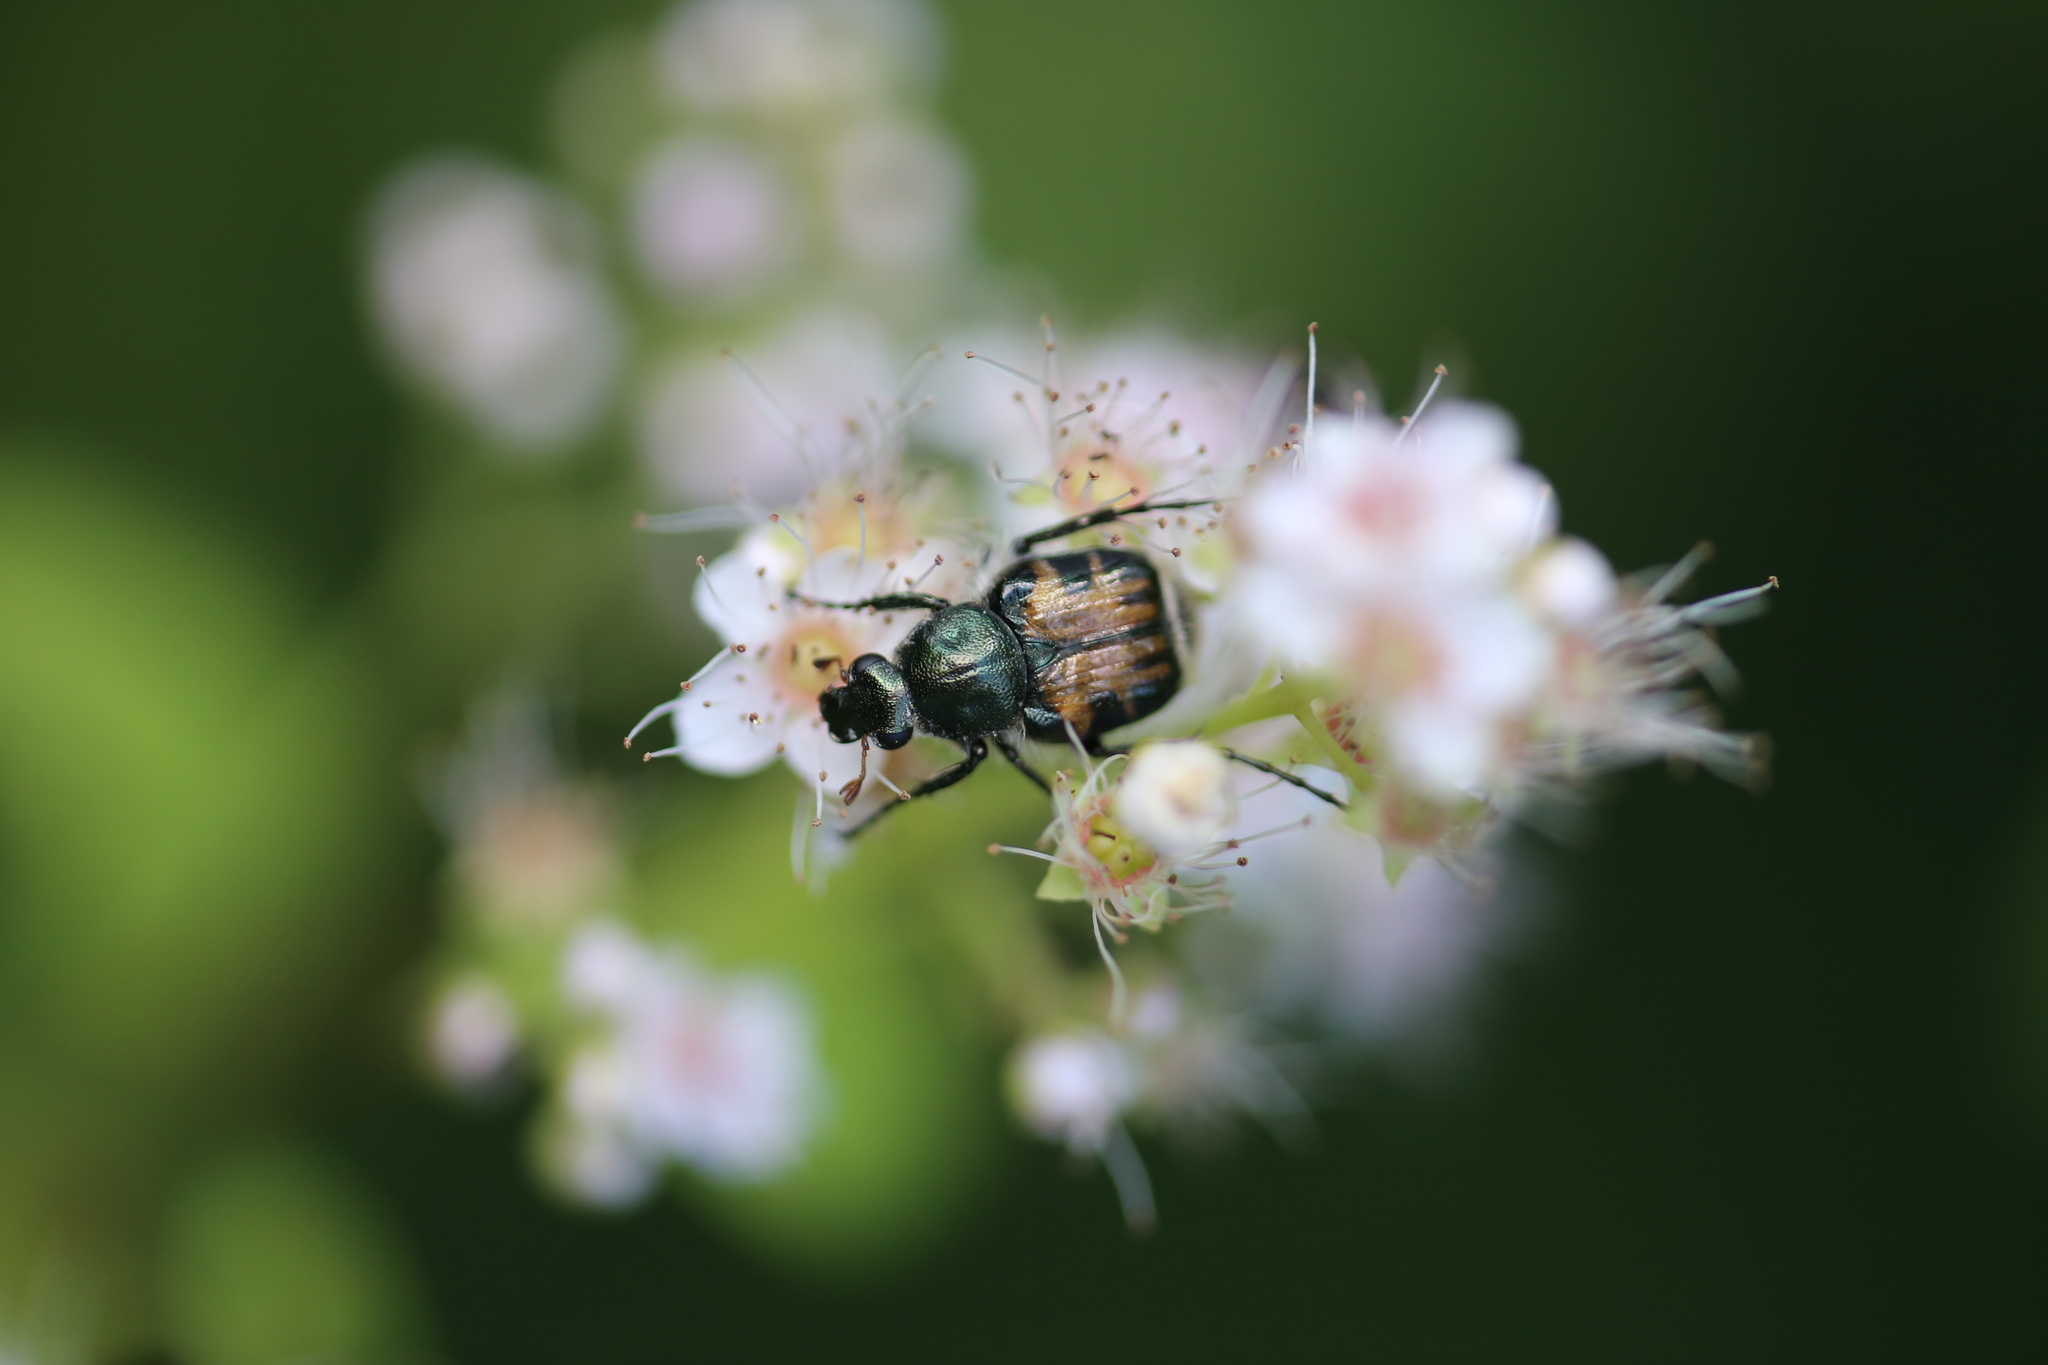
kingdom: Animalia
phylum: Arthropoda
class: Insecta
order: Coleoptera
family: Scarabaeidae
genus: Trichiotinus
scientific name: Trichiotinus affinis
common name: Hairy flower scarab
